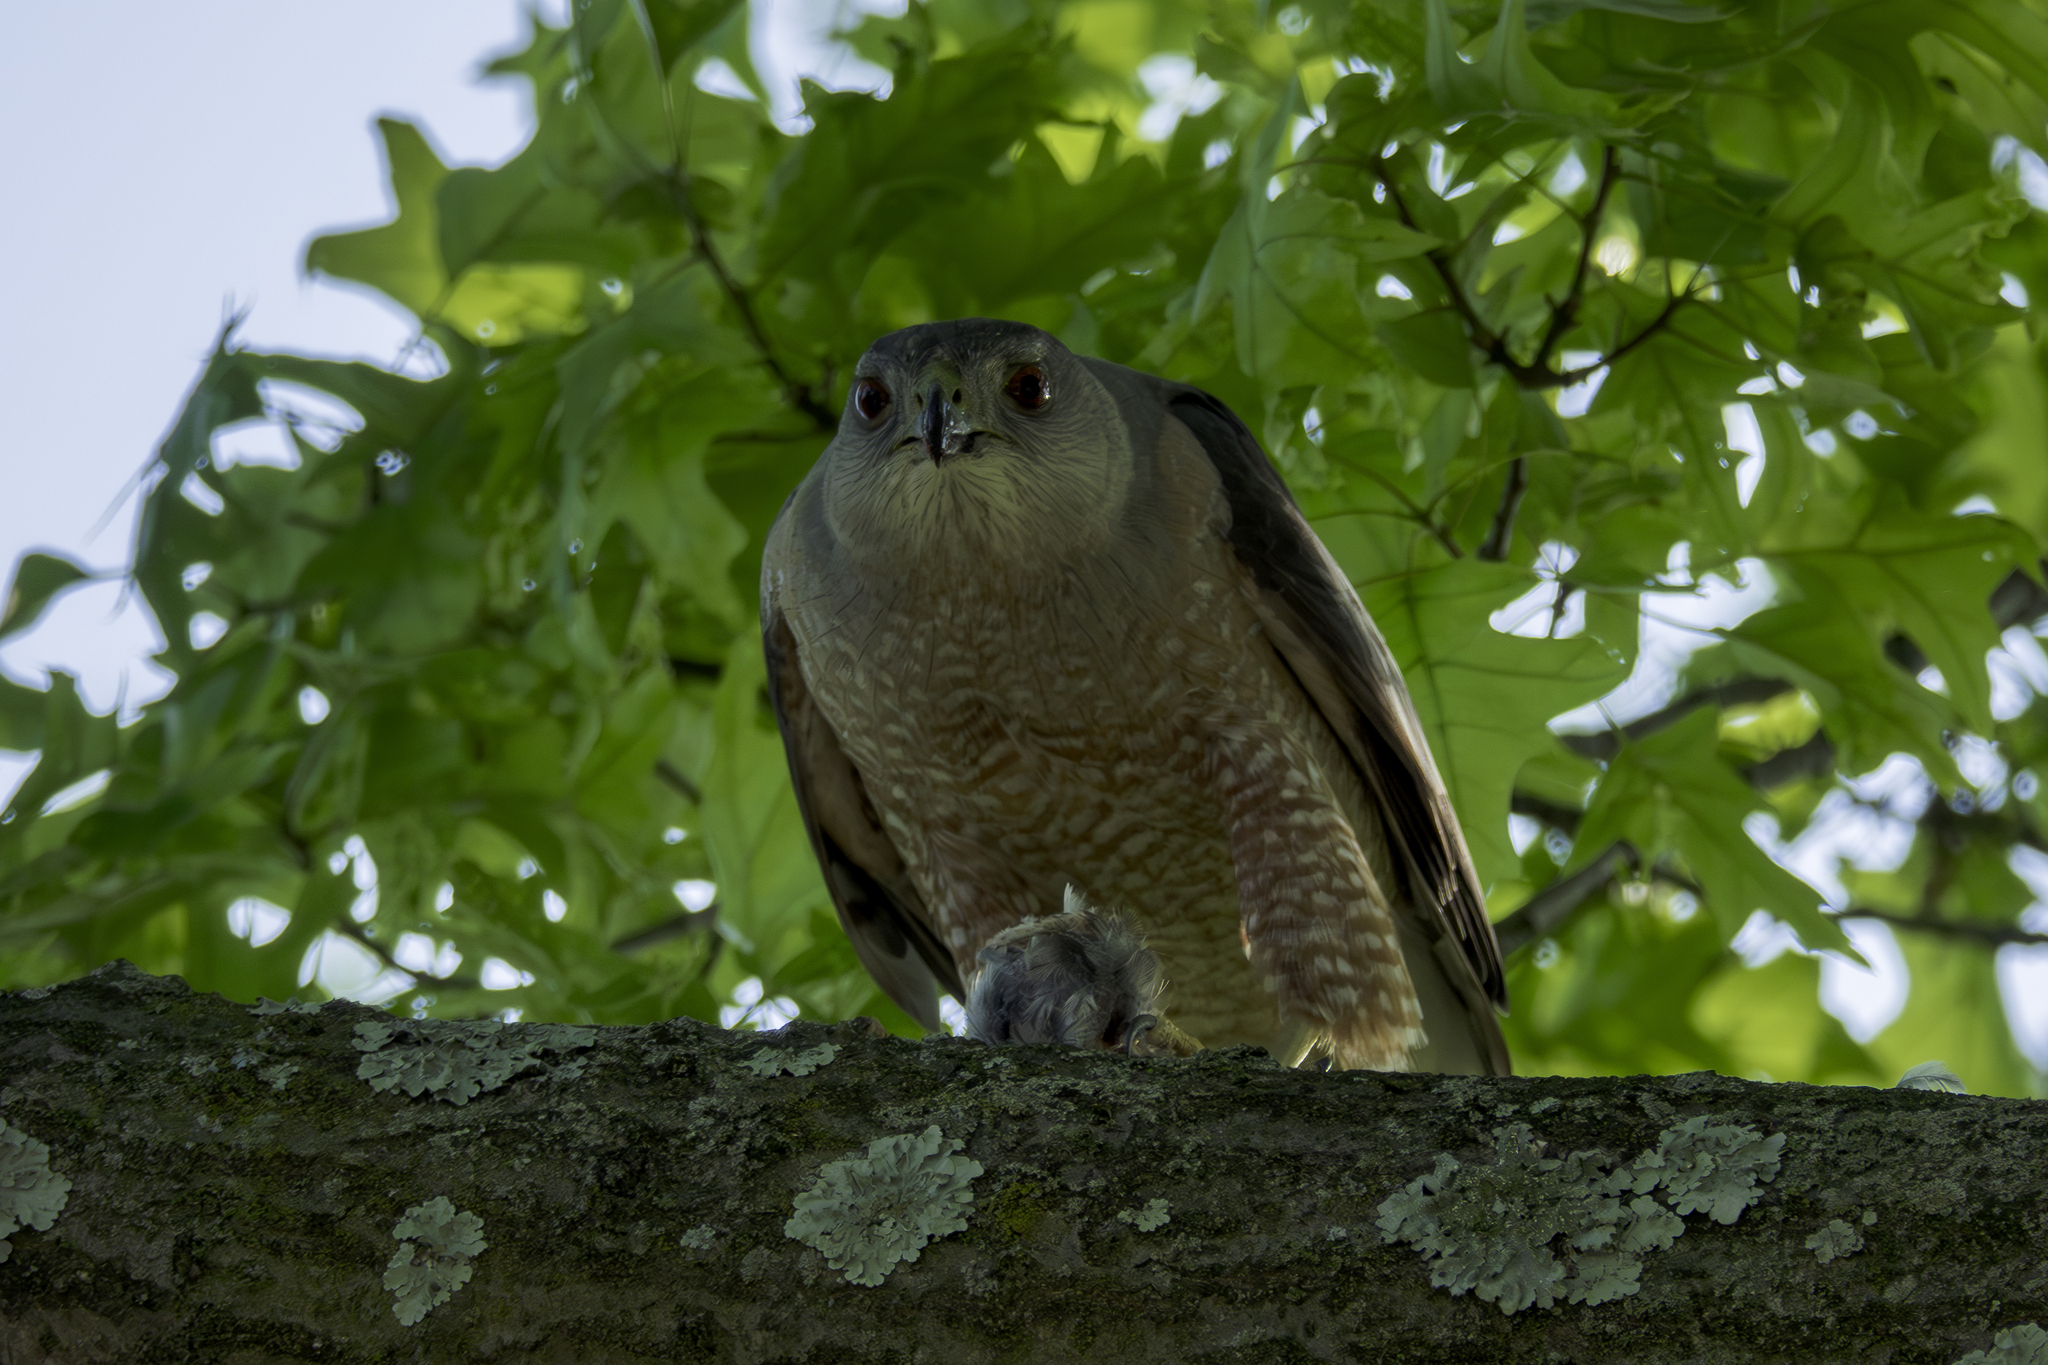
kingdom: Animalia
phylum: Chordata
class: Aves
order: Accipitriformes
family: Accipitridae
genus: Accipiter
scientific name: Accipiter cooperii
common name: Cooper's hawk
